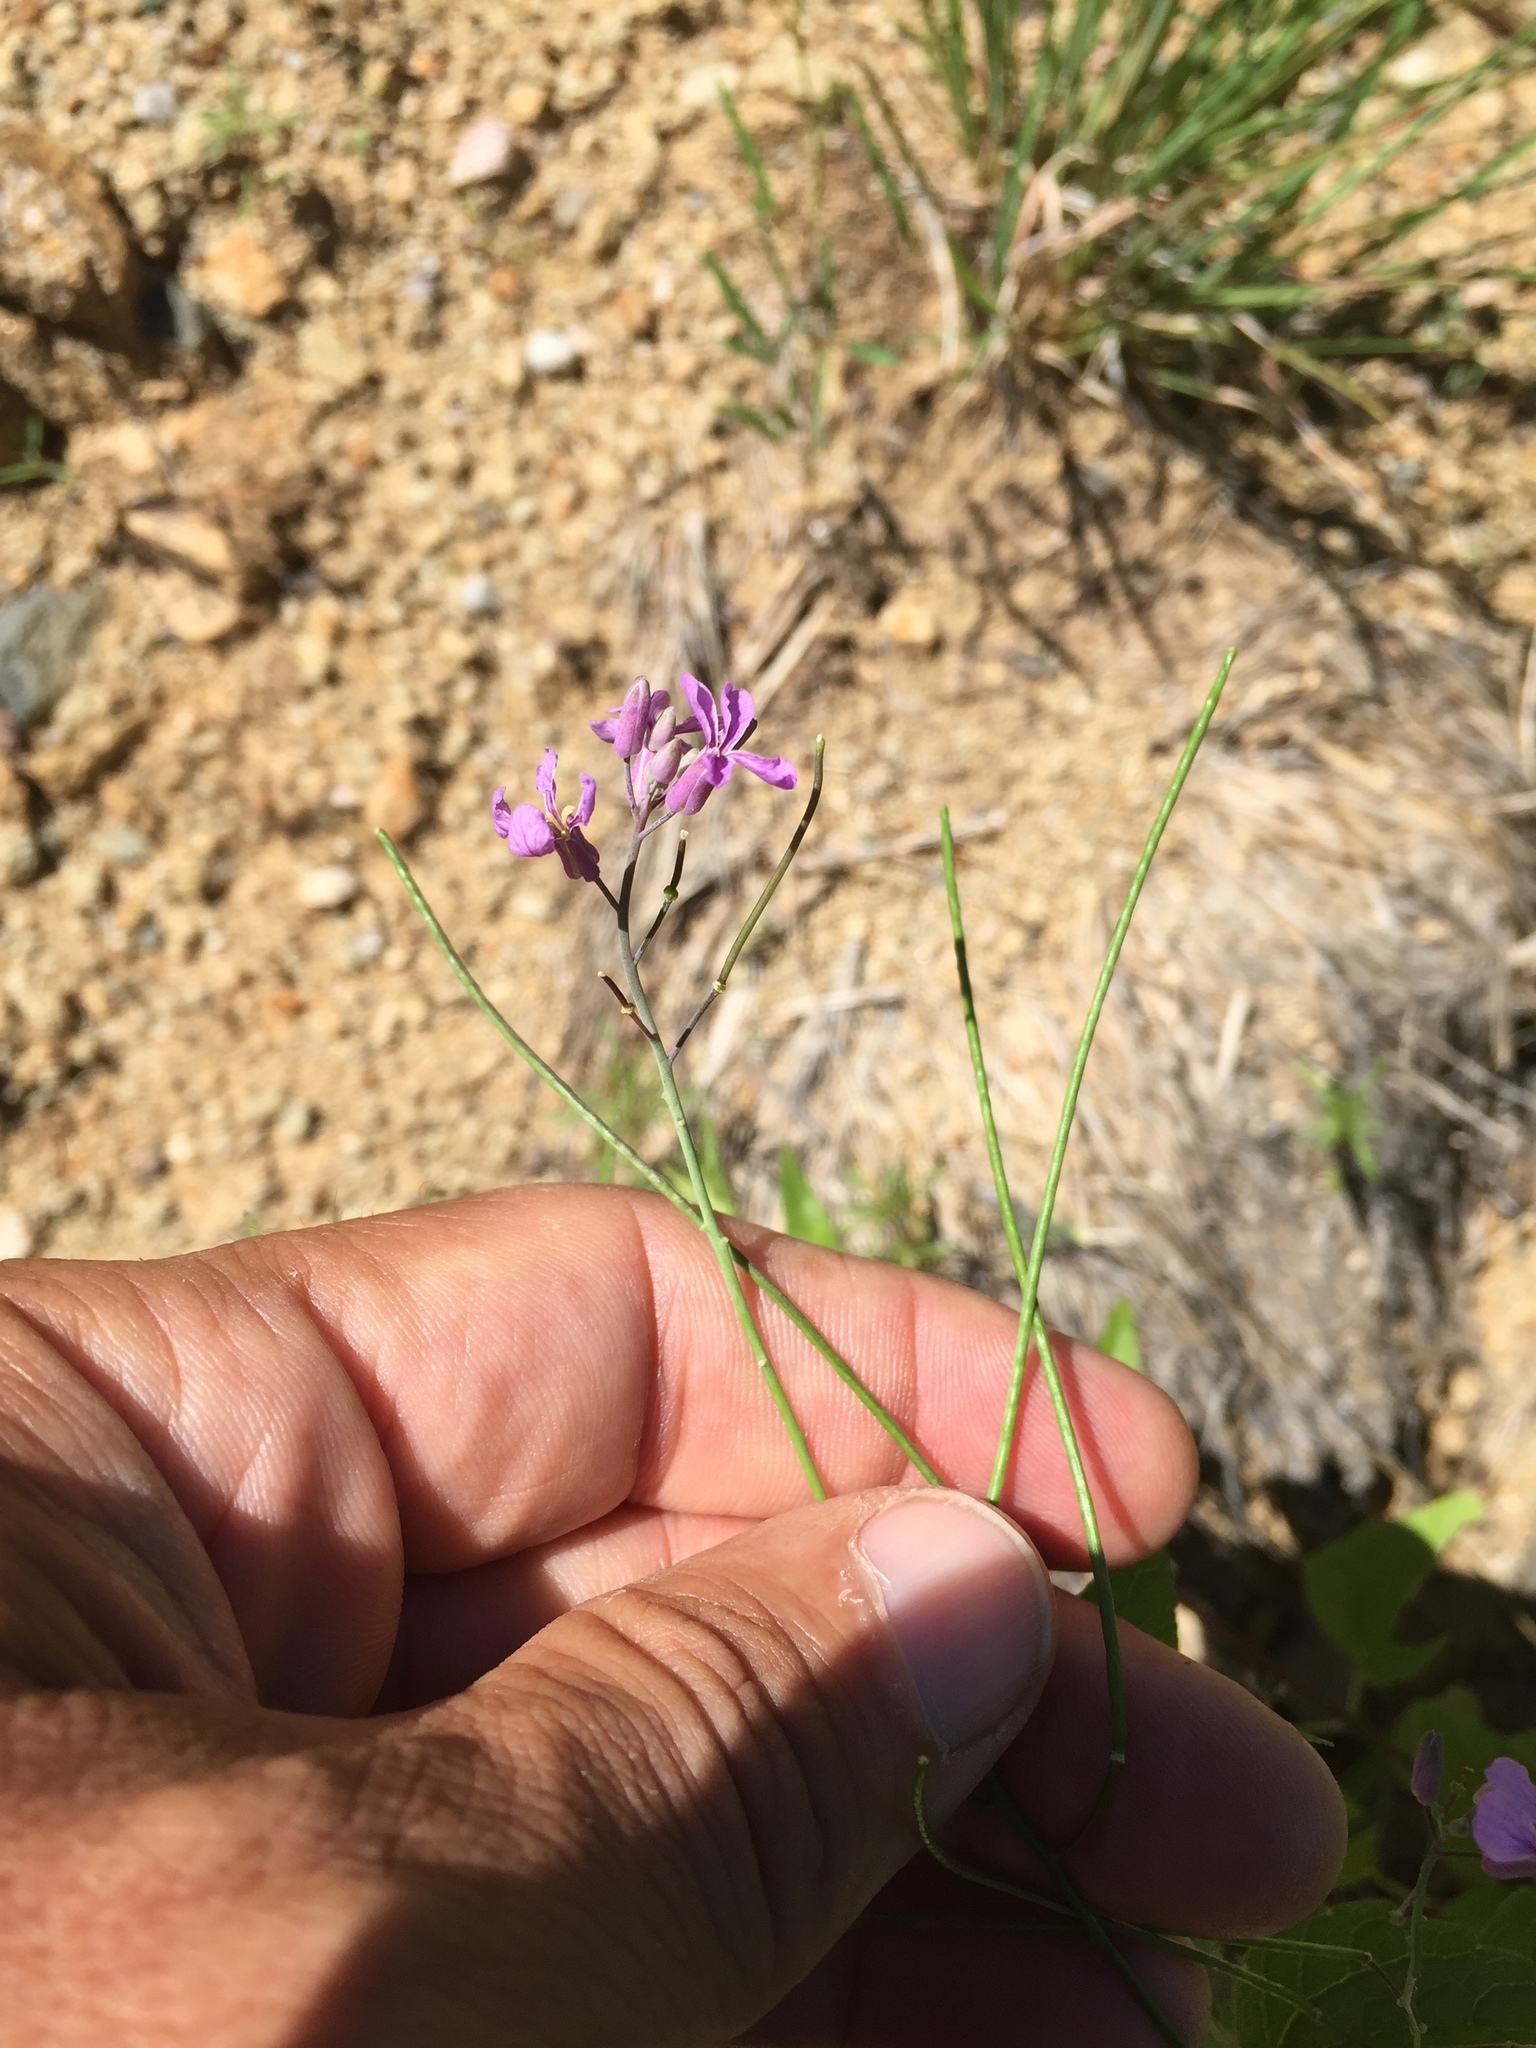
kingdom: Plantae
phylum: Tracheophyta
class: Magnoliopsida
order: Brassicales
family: Brassicaceae
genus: Hesperidanthus
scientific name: Hesperidanthus linearifolius
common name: Slim-leaf plains mustard
